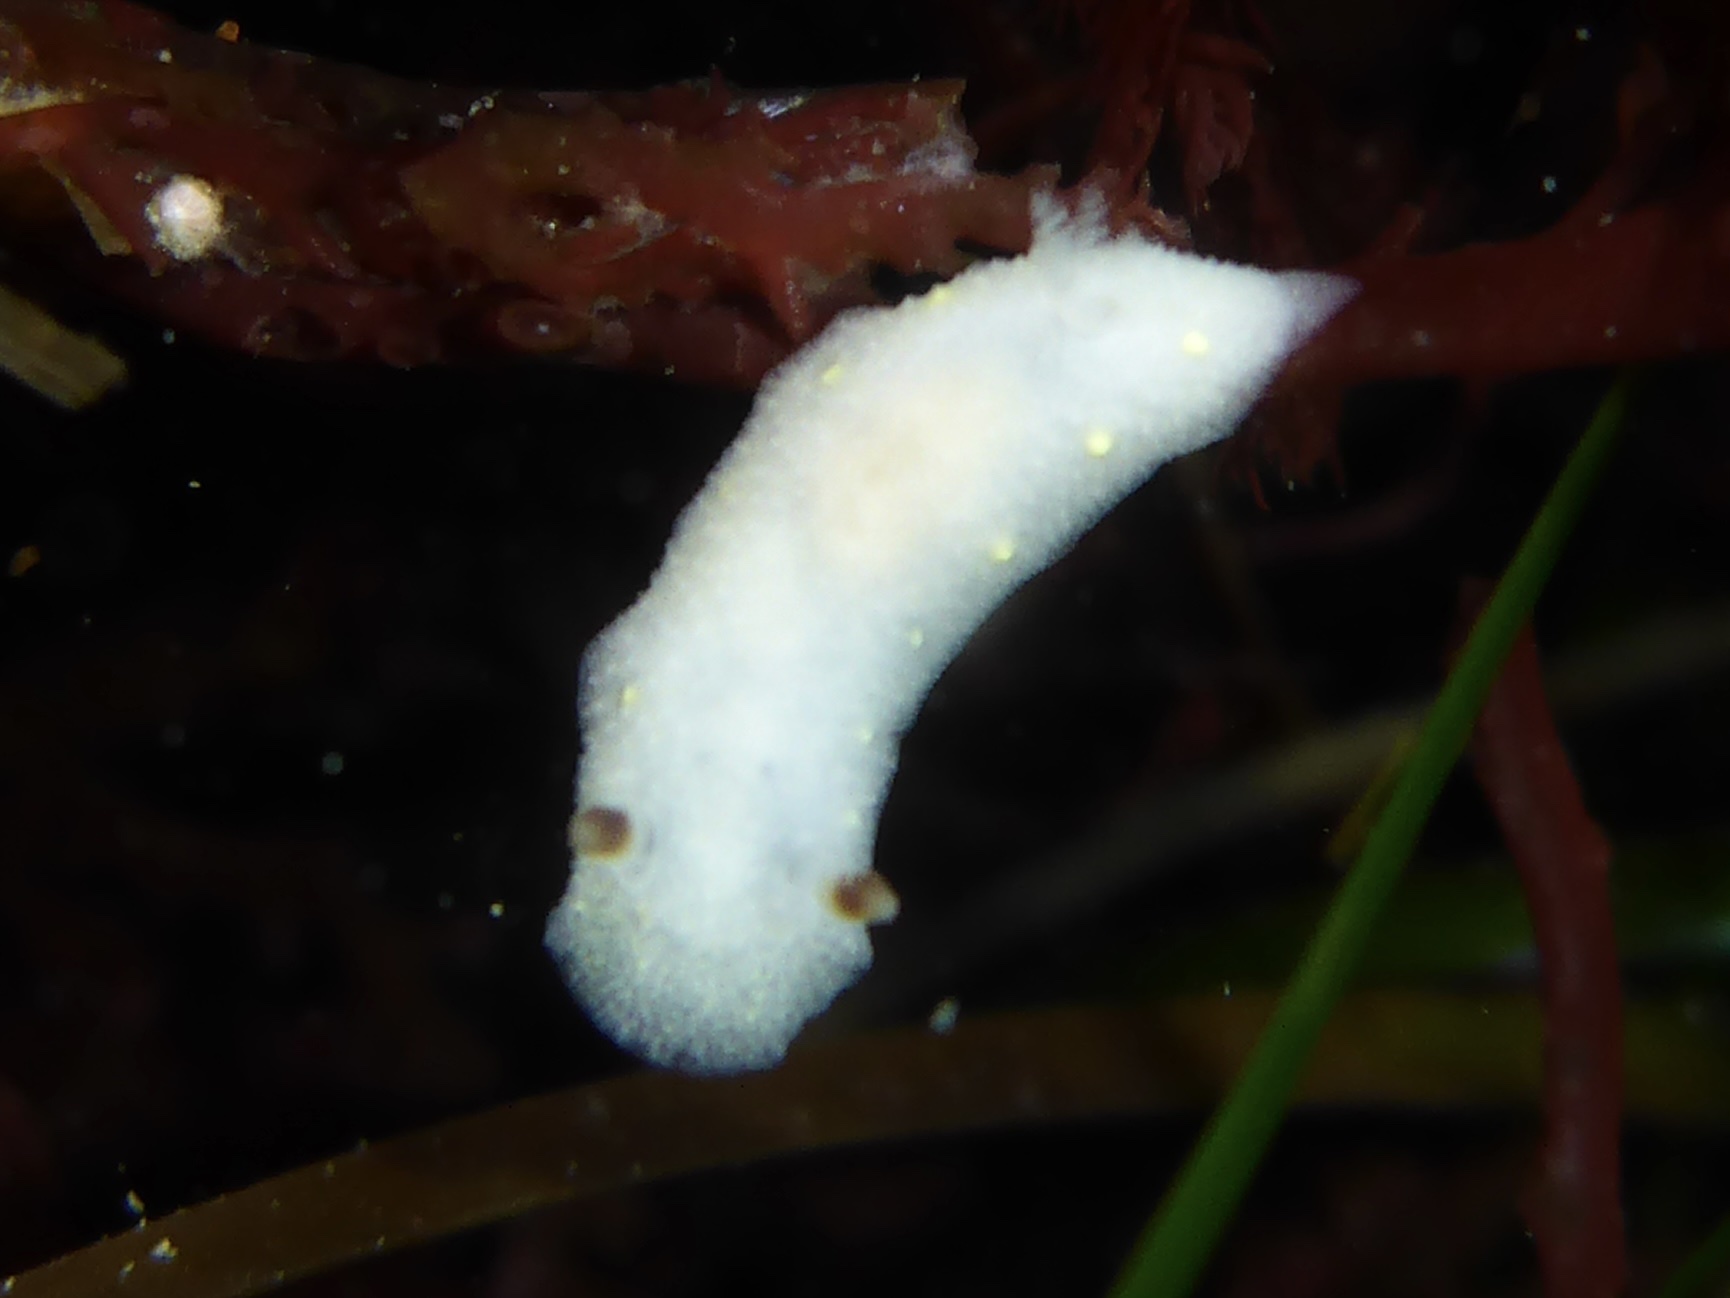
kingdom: Animalia
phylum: Mollusca
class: Gastropoda
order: Nudibranchia
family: Cadlinidae
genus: Cadlina
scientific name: Cadlina flavomaculata
